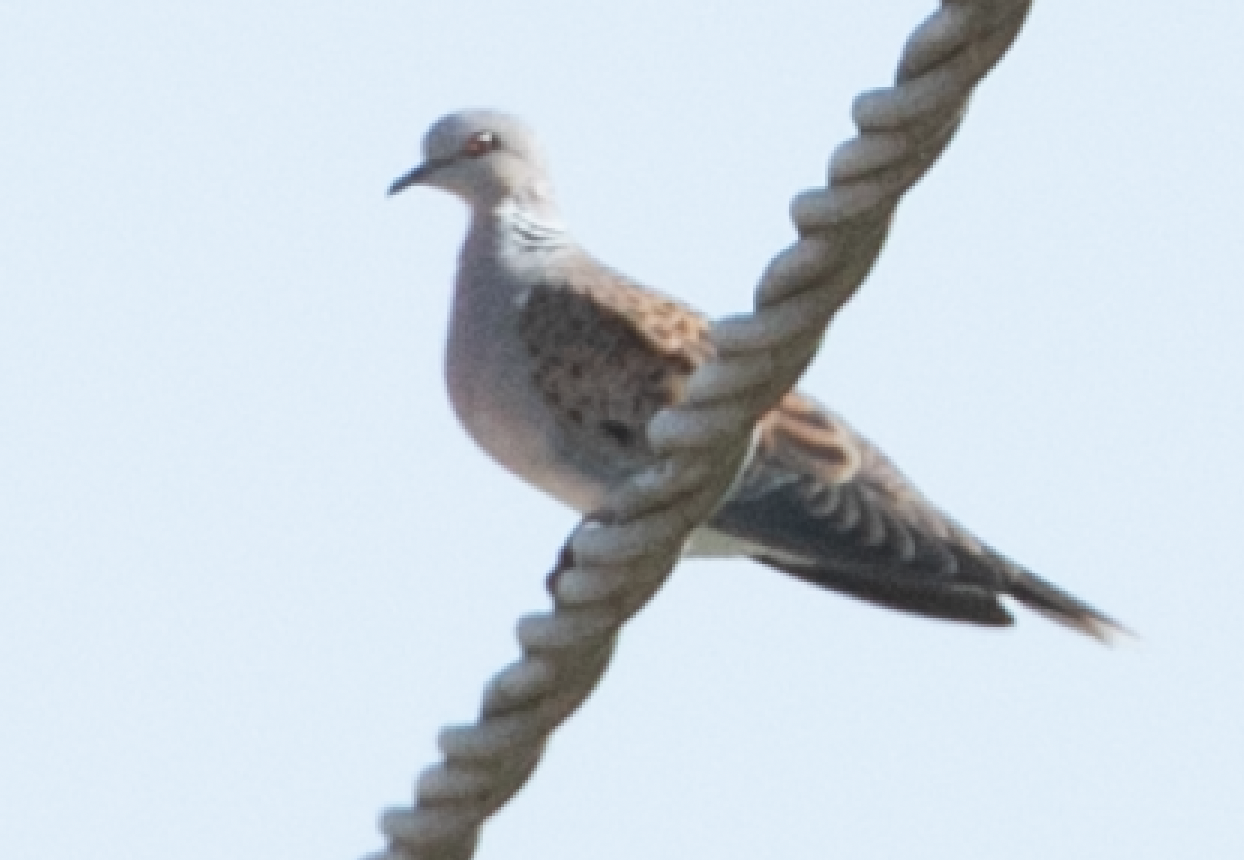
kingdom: Animalia
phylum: Chordata
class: Aves
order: Columbiformes
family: Columbidae
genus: Streptopelia
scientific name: Streptopelia turtur
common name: European turtle dove
